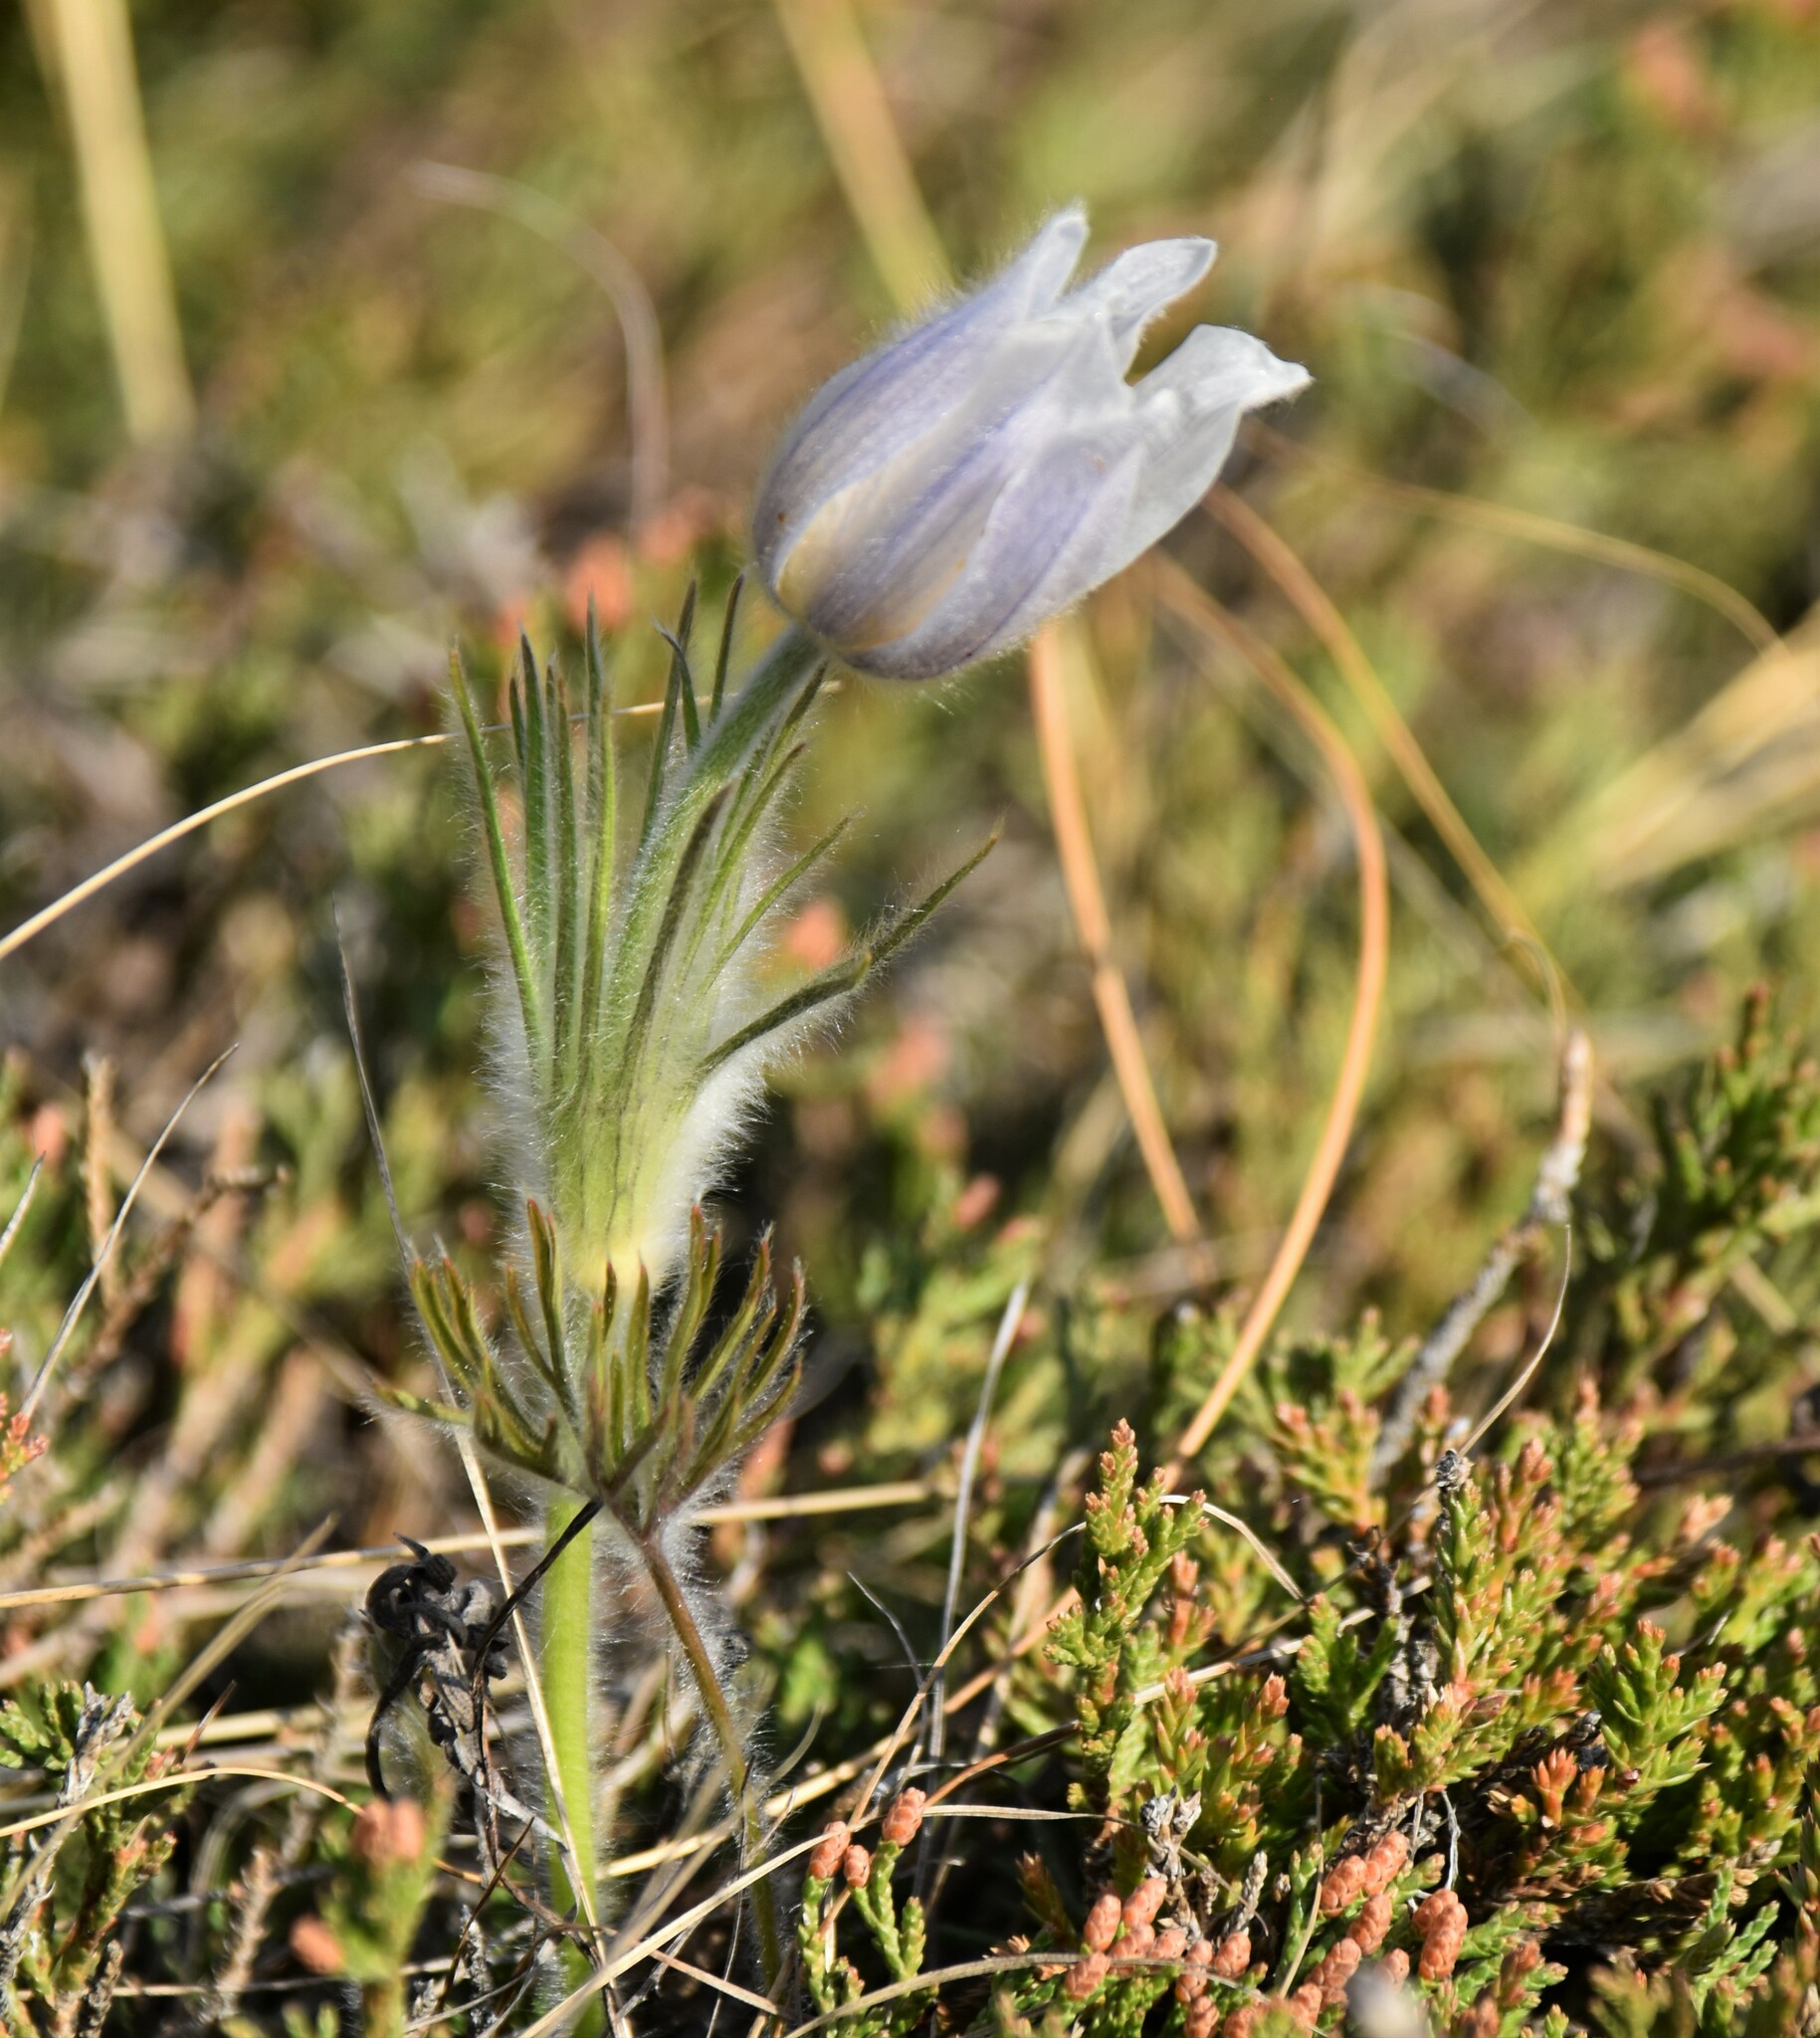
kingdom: Plantae
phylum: Tracheophyta
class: Magnoliopsida
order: Ranunculales
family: Ranunculaceae
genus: Pulsatilla
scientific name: Pulsatilla nuttalliana
